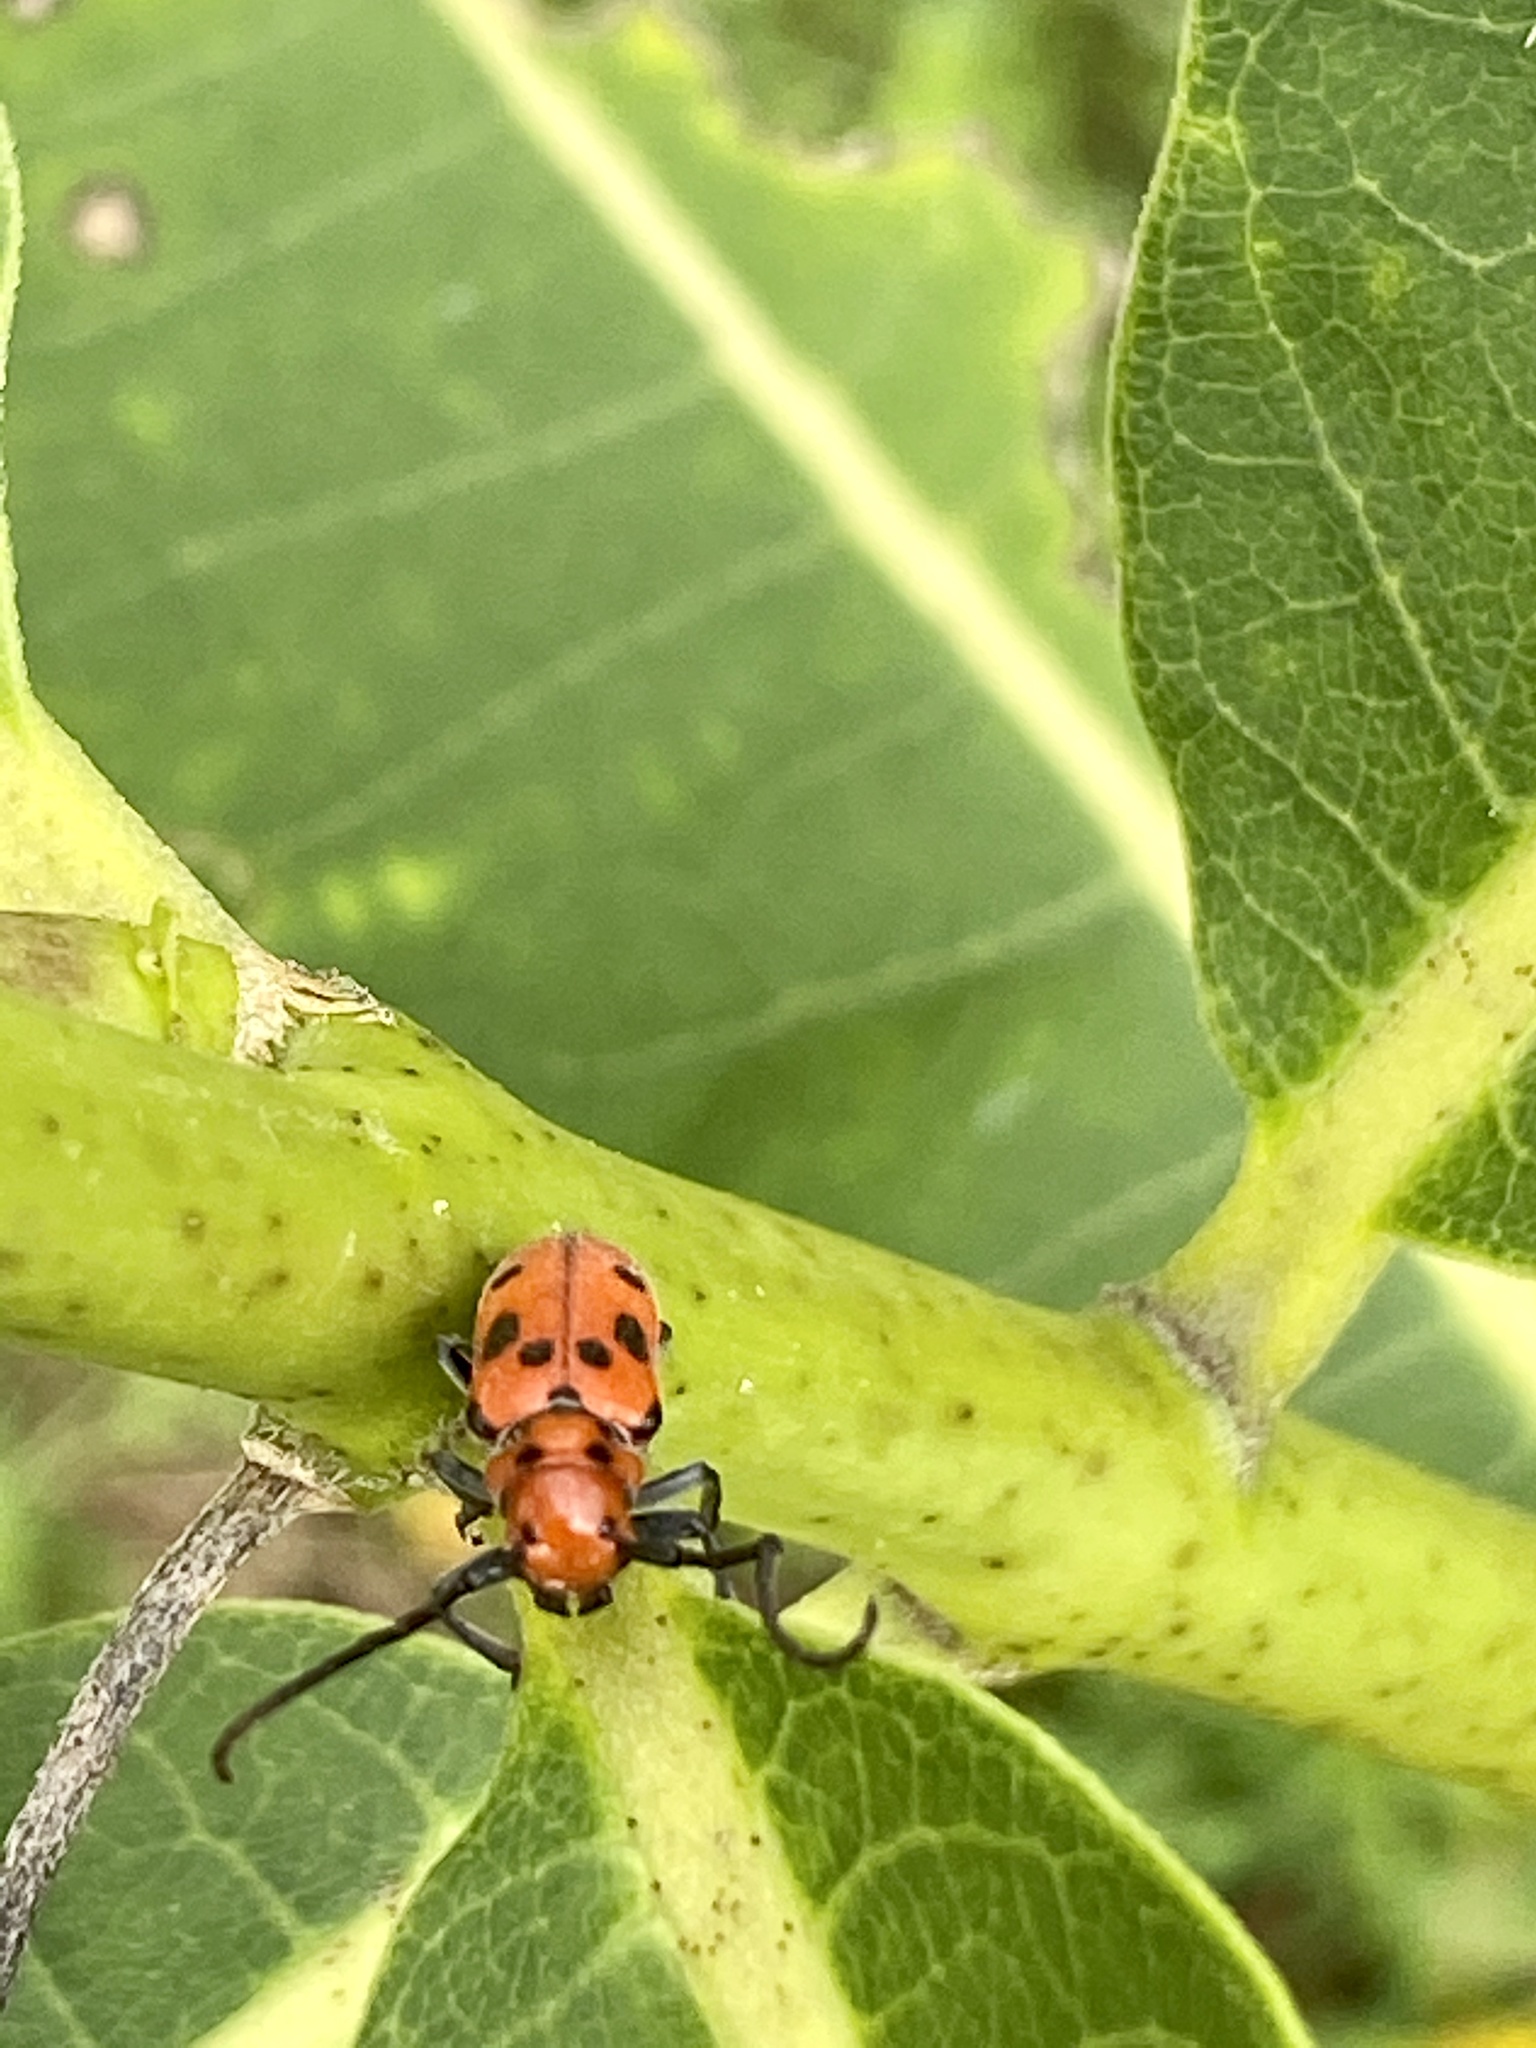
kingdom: Animalia
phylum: Arthropoda
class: Insecta
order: Coleoptera
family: Cerambycidae
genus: Tetraopes
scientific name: Tetraopes tetrophthalmus
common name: Red milkweed beetle
